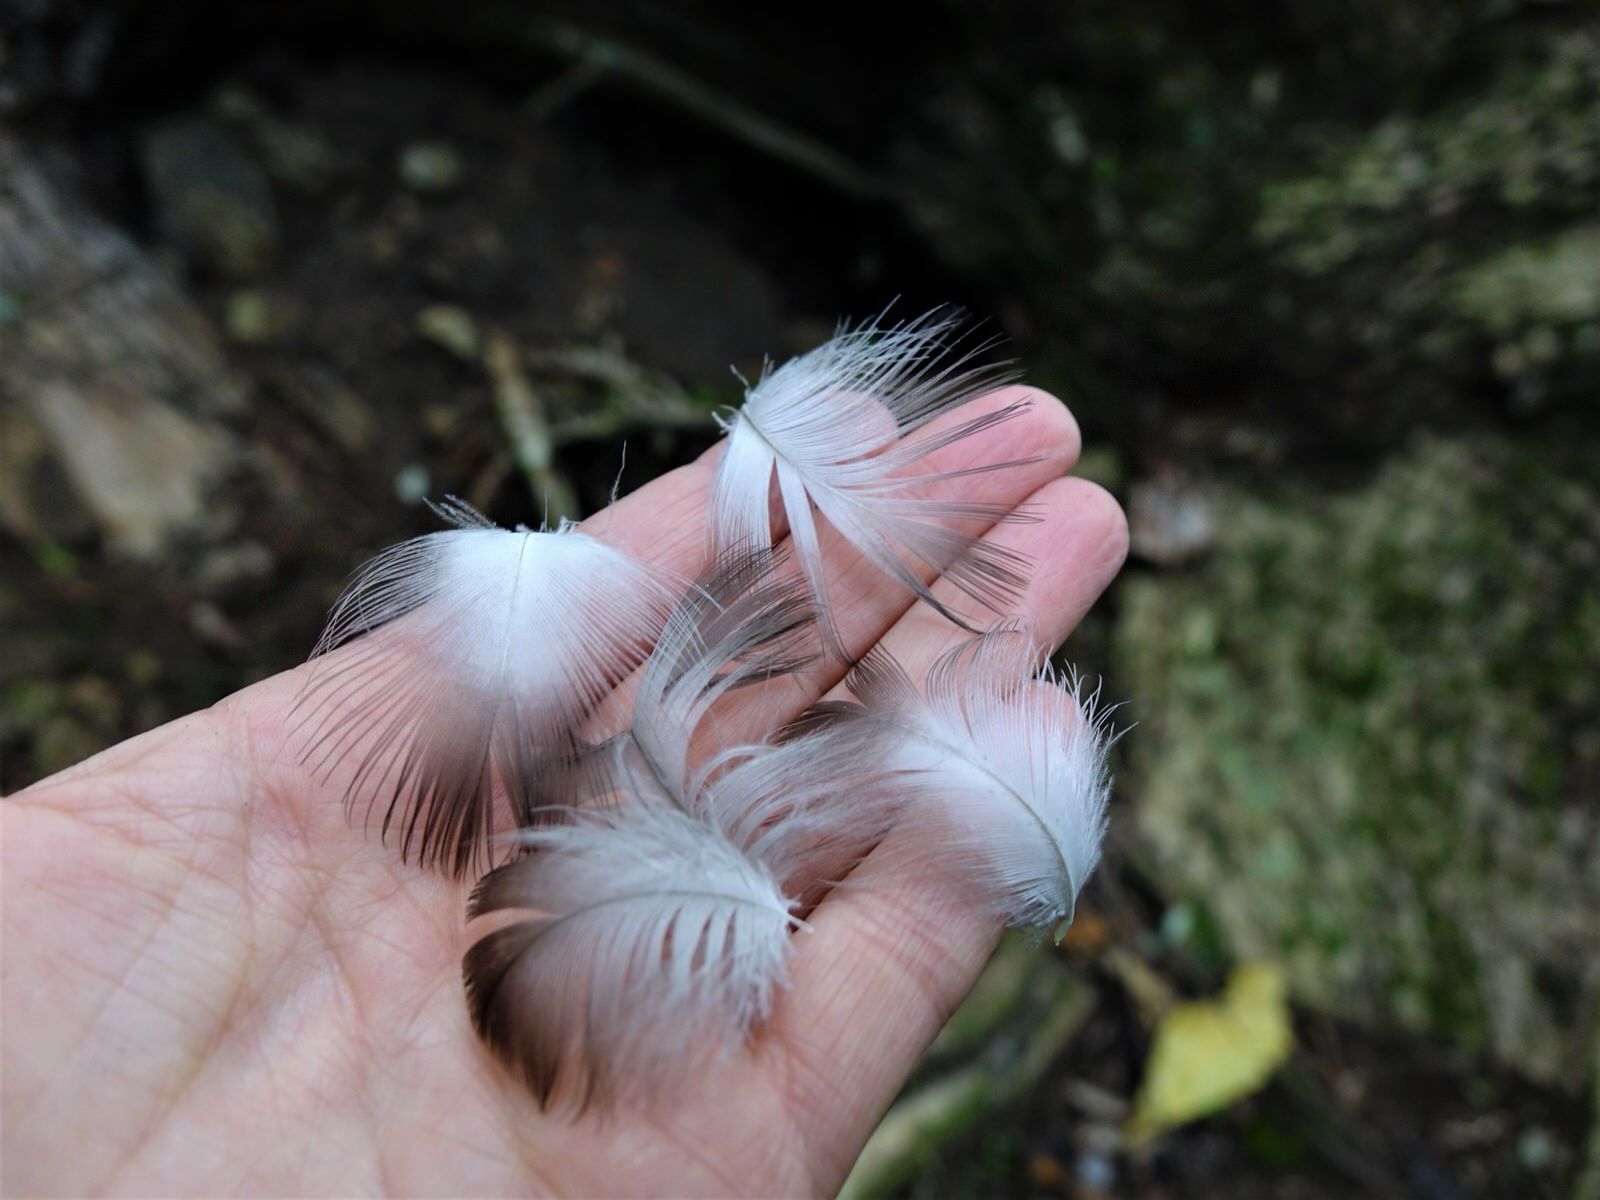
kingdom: Animalia
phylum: Chordata
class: Aves
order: Procellariiformes
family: Procellariidae
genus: Pterodroma
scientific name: Pterodroma macroptera
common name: Great-winged petrel
